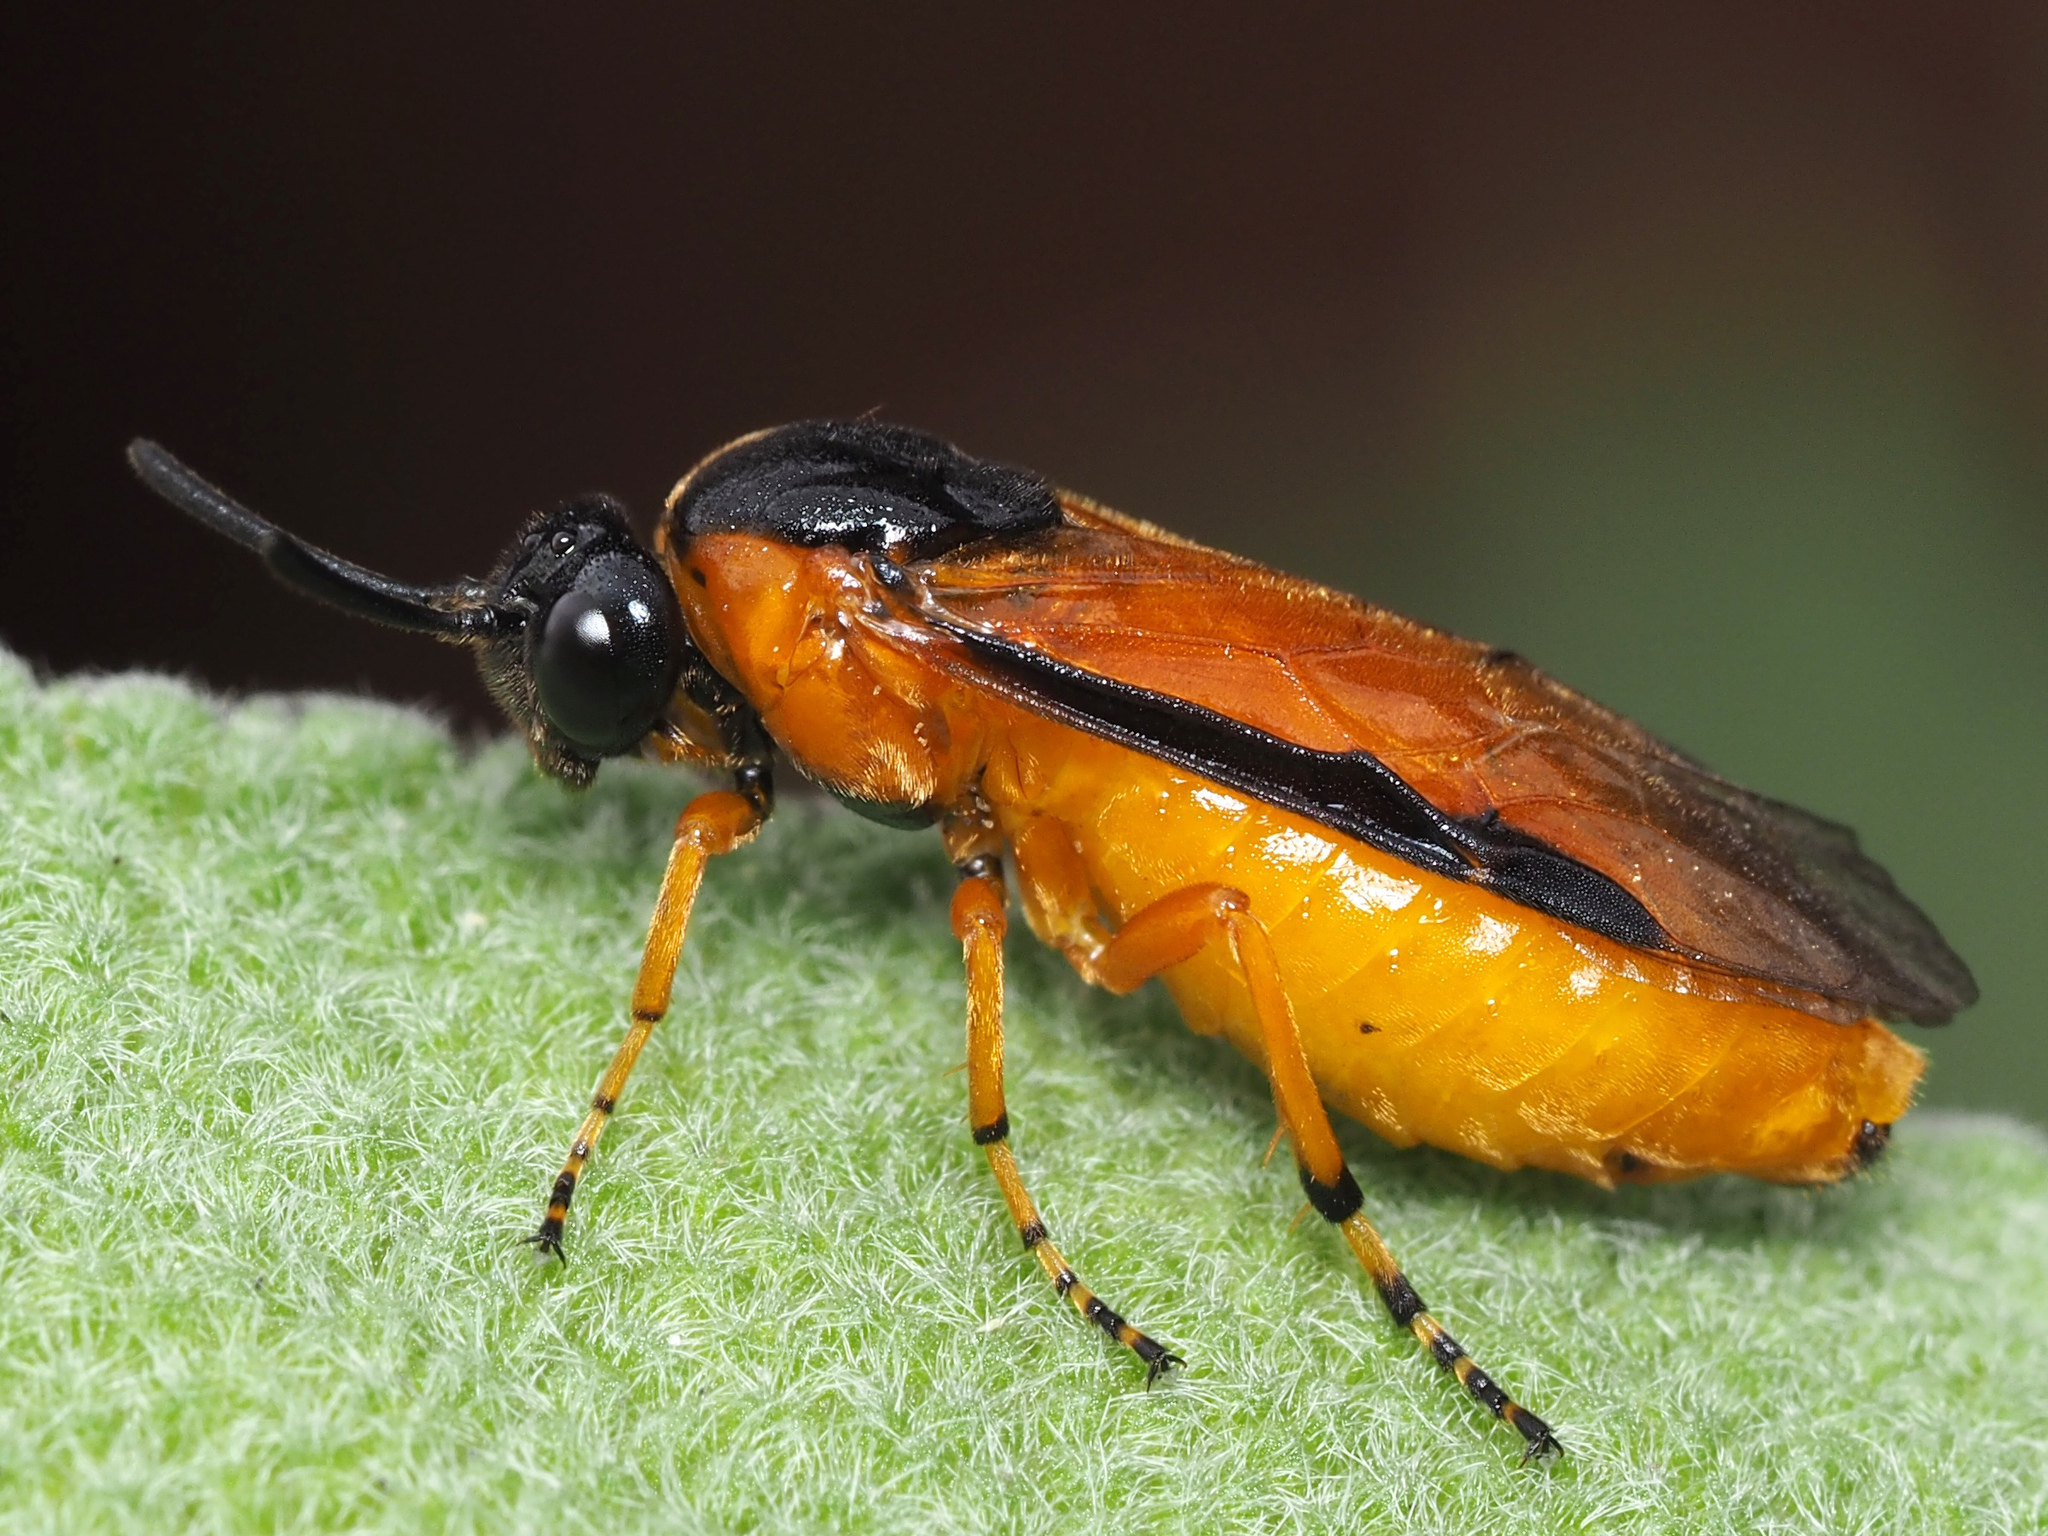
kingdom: Animalia
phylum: Arthropoda
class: Insecta
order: Hymenoptera
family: Argidae
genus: Arge
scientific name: Arge ochropus
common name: Argid sawfly
